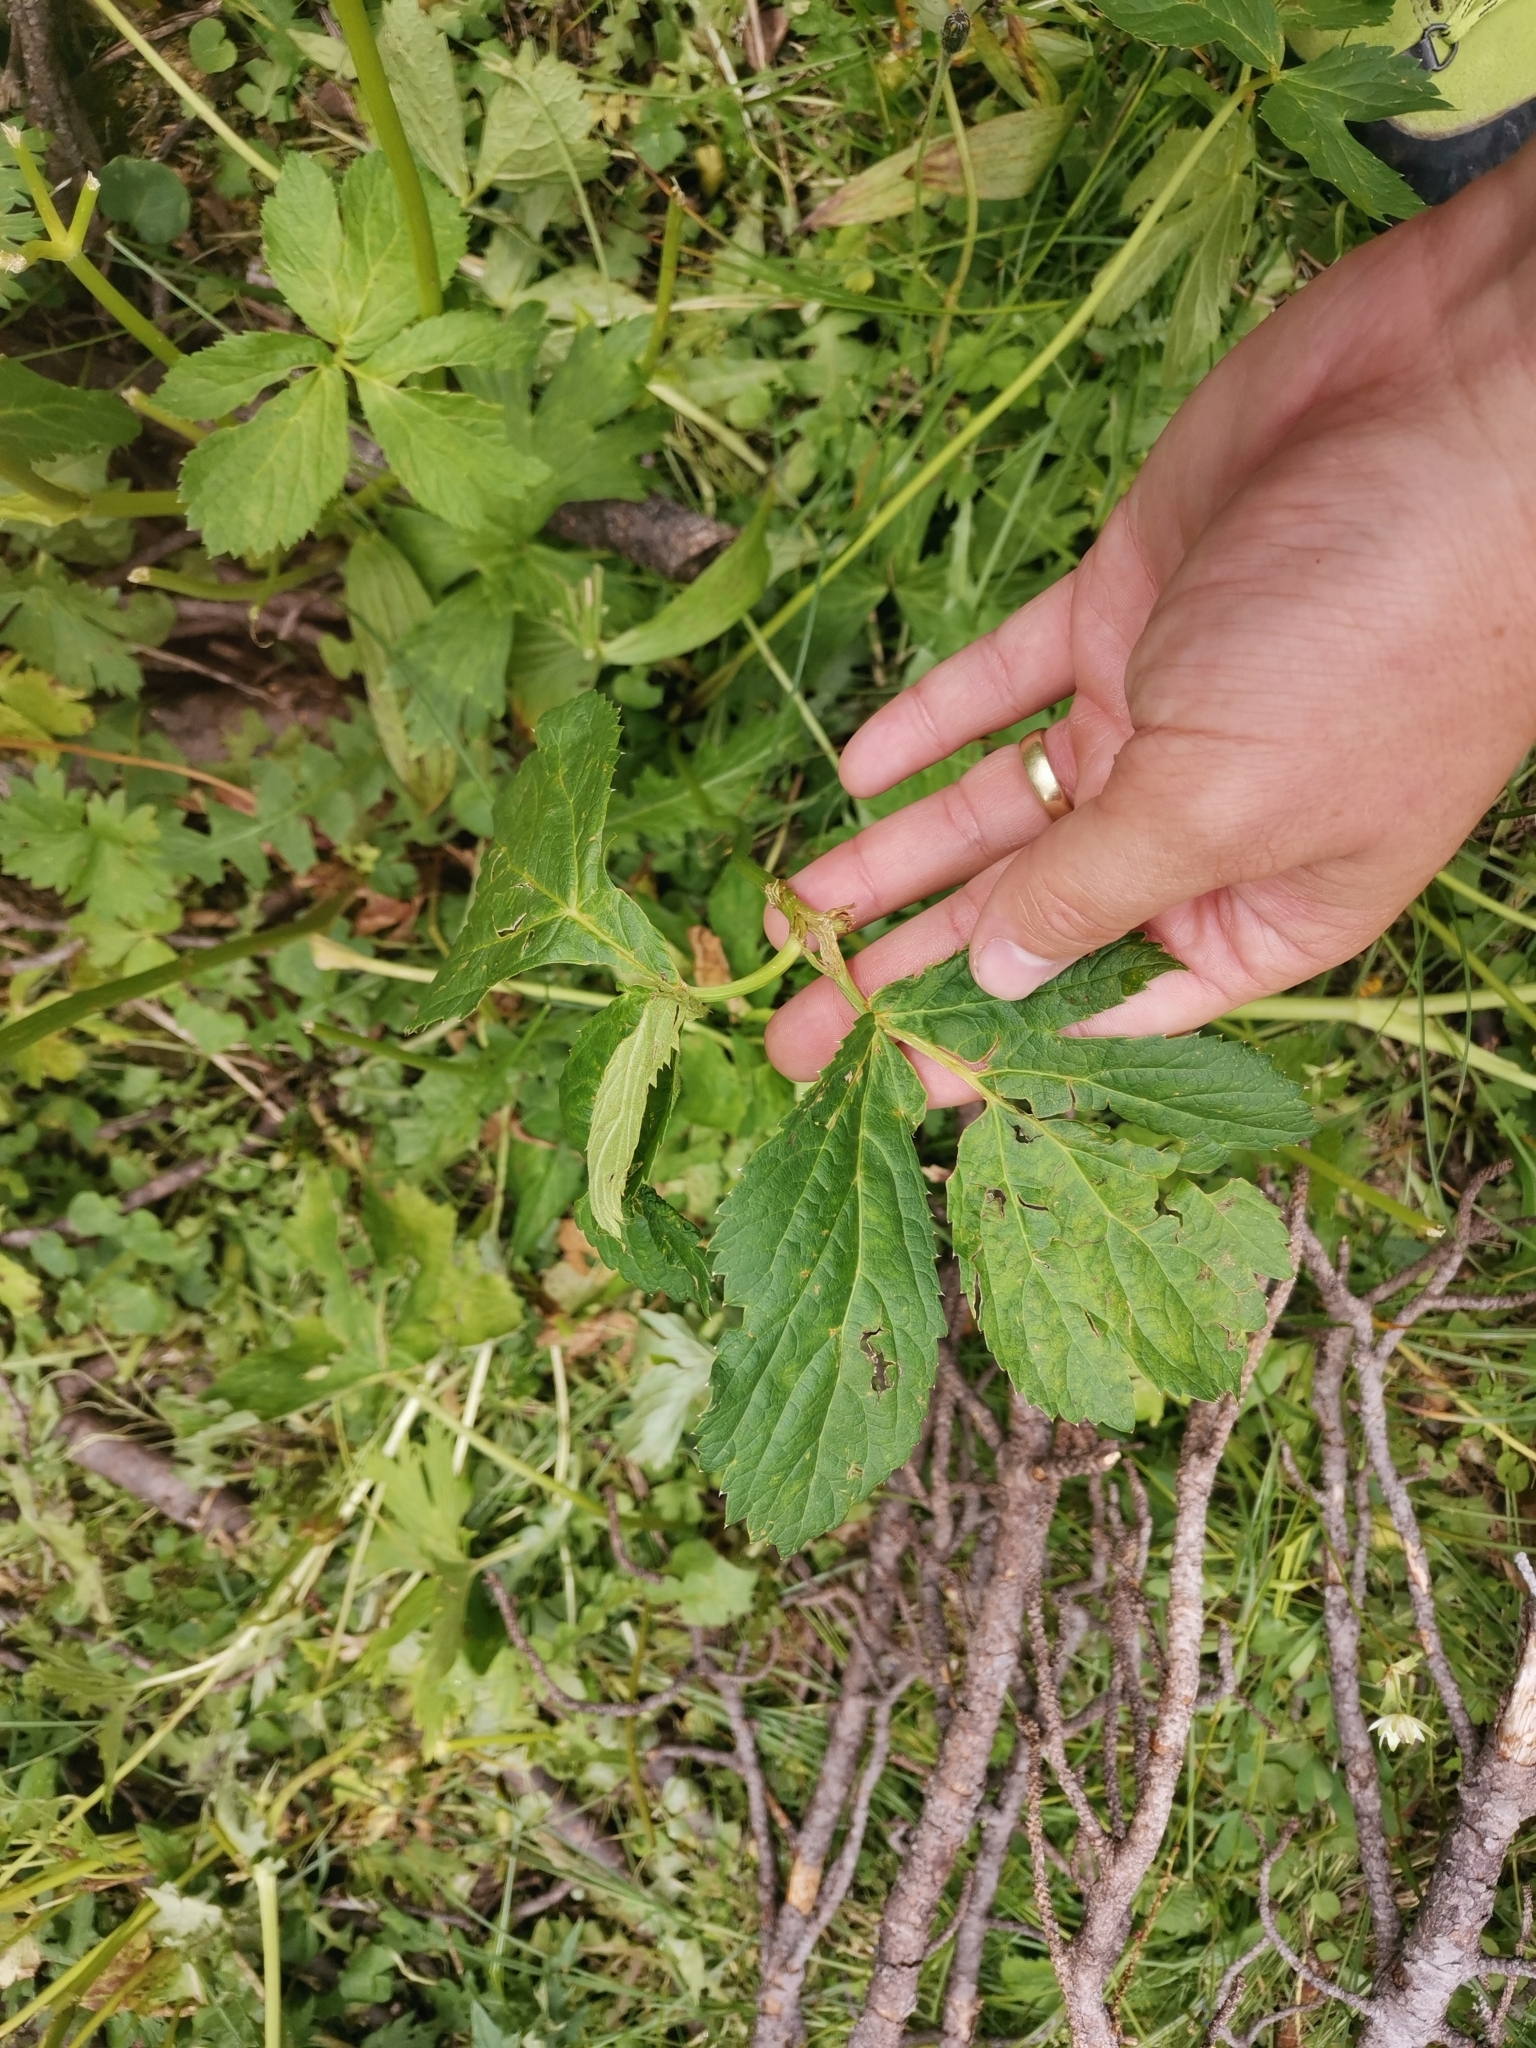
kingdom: Plantae
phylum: Tracheophyta
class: Magnoliopsida
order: Apiales
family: Apiaceae
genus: Imperatoria
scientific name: Imperatoria ostruthium
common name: Masterwort
